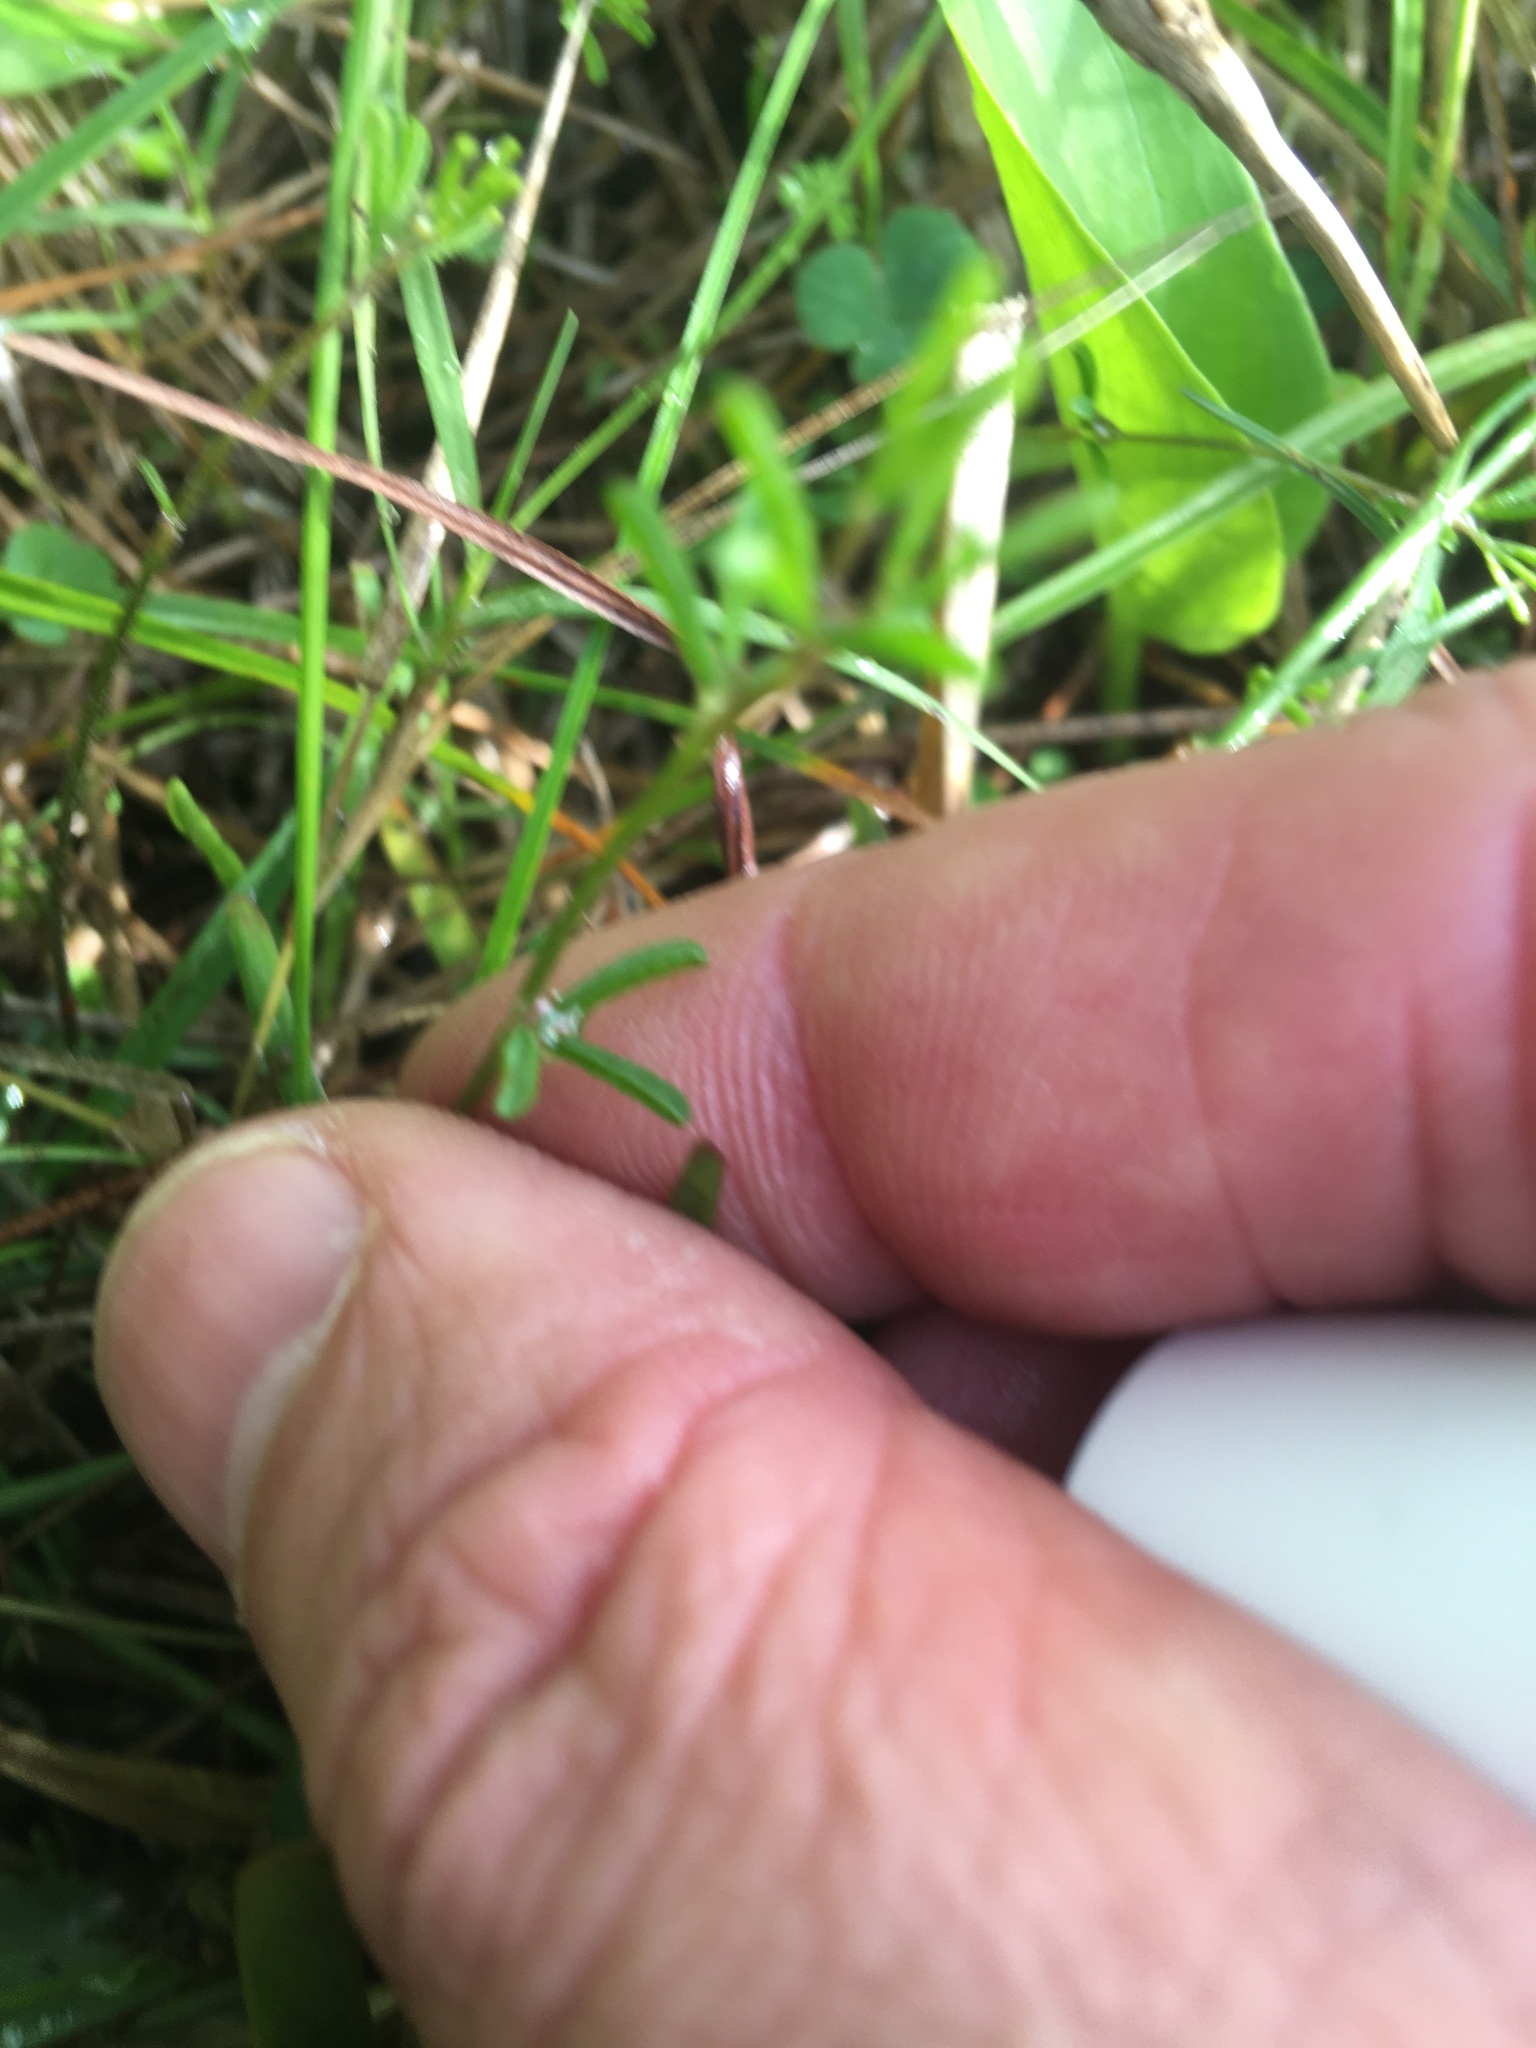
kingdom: Plantae
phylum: Tracheophyta
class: Magnoliopsida
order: Oxalidales
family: Oxalidaceae
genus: Oxalis
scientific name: Oxalis versicolor
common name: Peppermint rock oxalis
